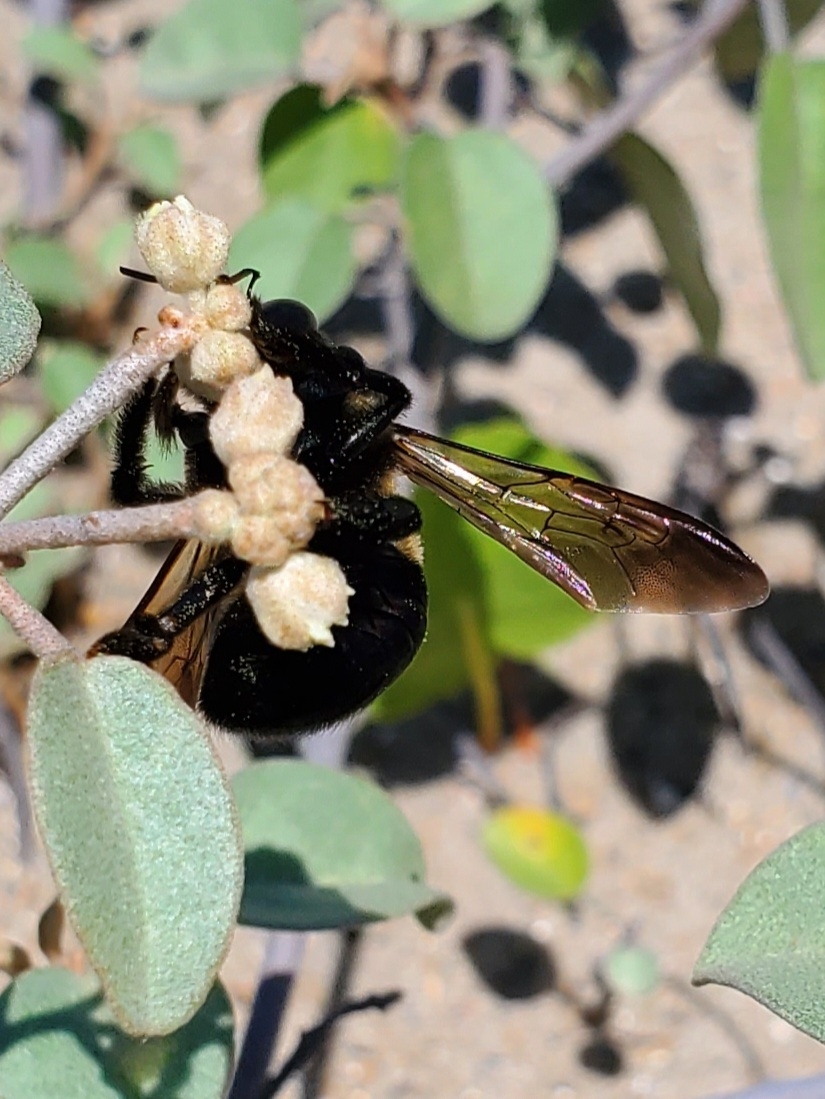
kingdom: Animalia
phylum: Arthropoda
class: Insecta
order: Hymenoptera
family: Apidae
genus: Xylocopa
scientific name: Xylocopa virginica
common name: Carpenter bee
